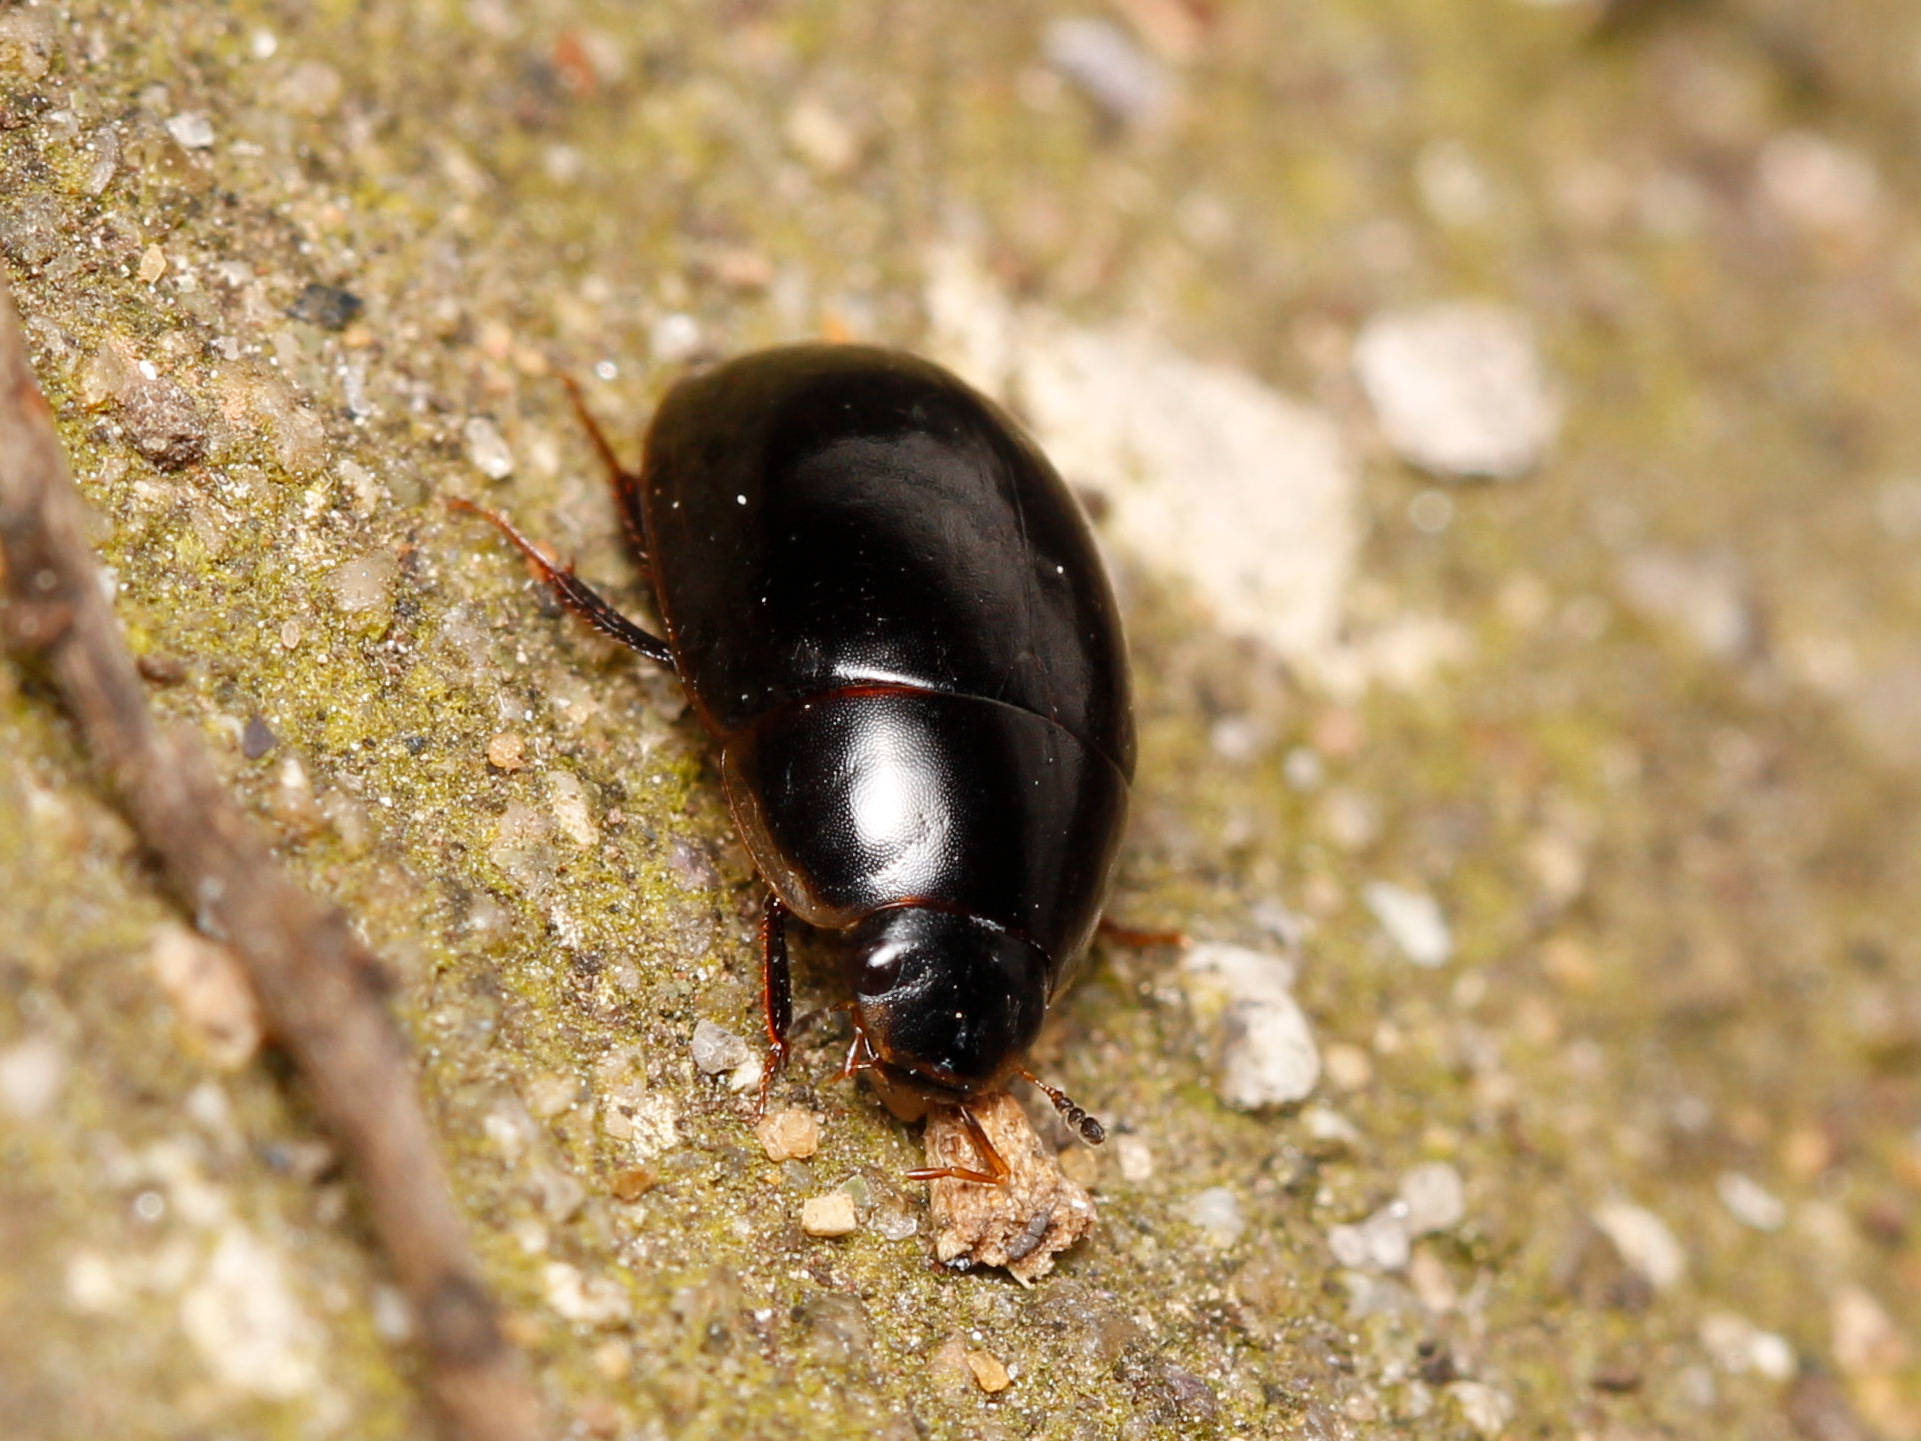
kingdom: Animalia
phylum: Arthropoda
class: Insecta
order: Coleoptera
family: Hydrophilidae
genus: Enochrus
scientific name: Enochrus
